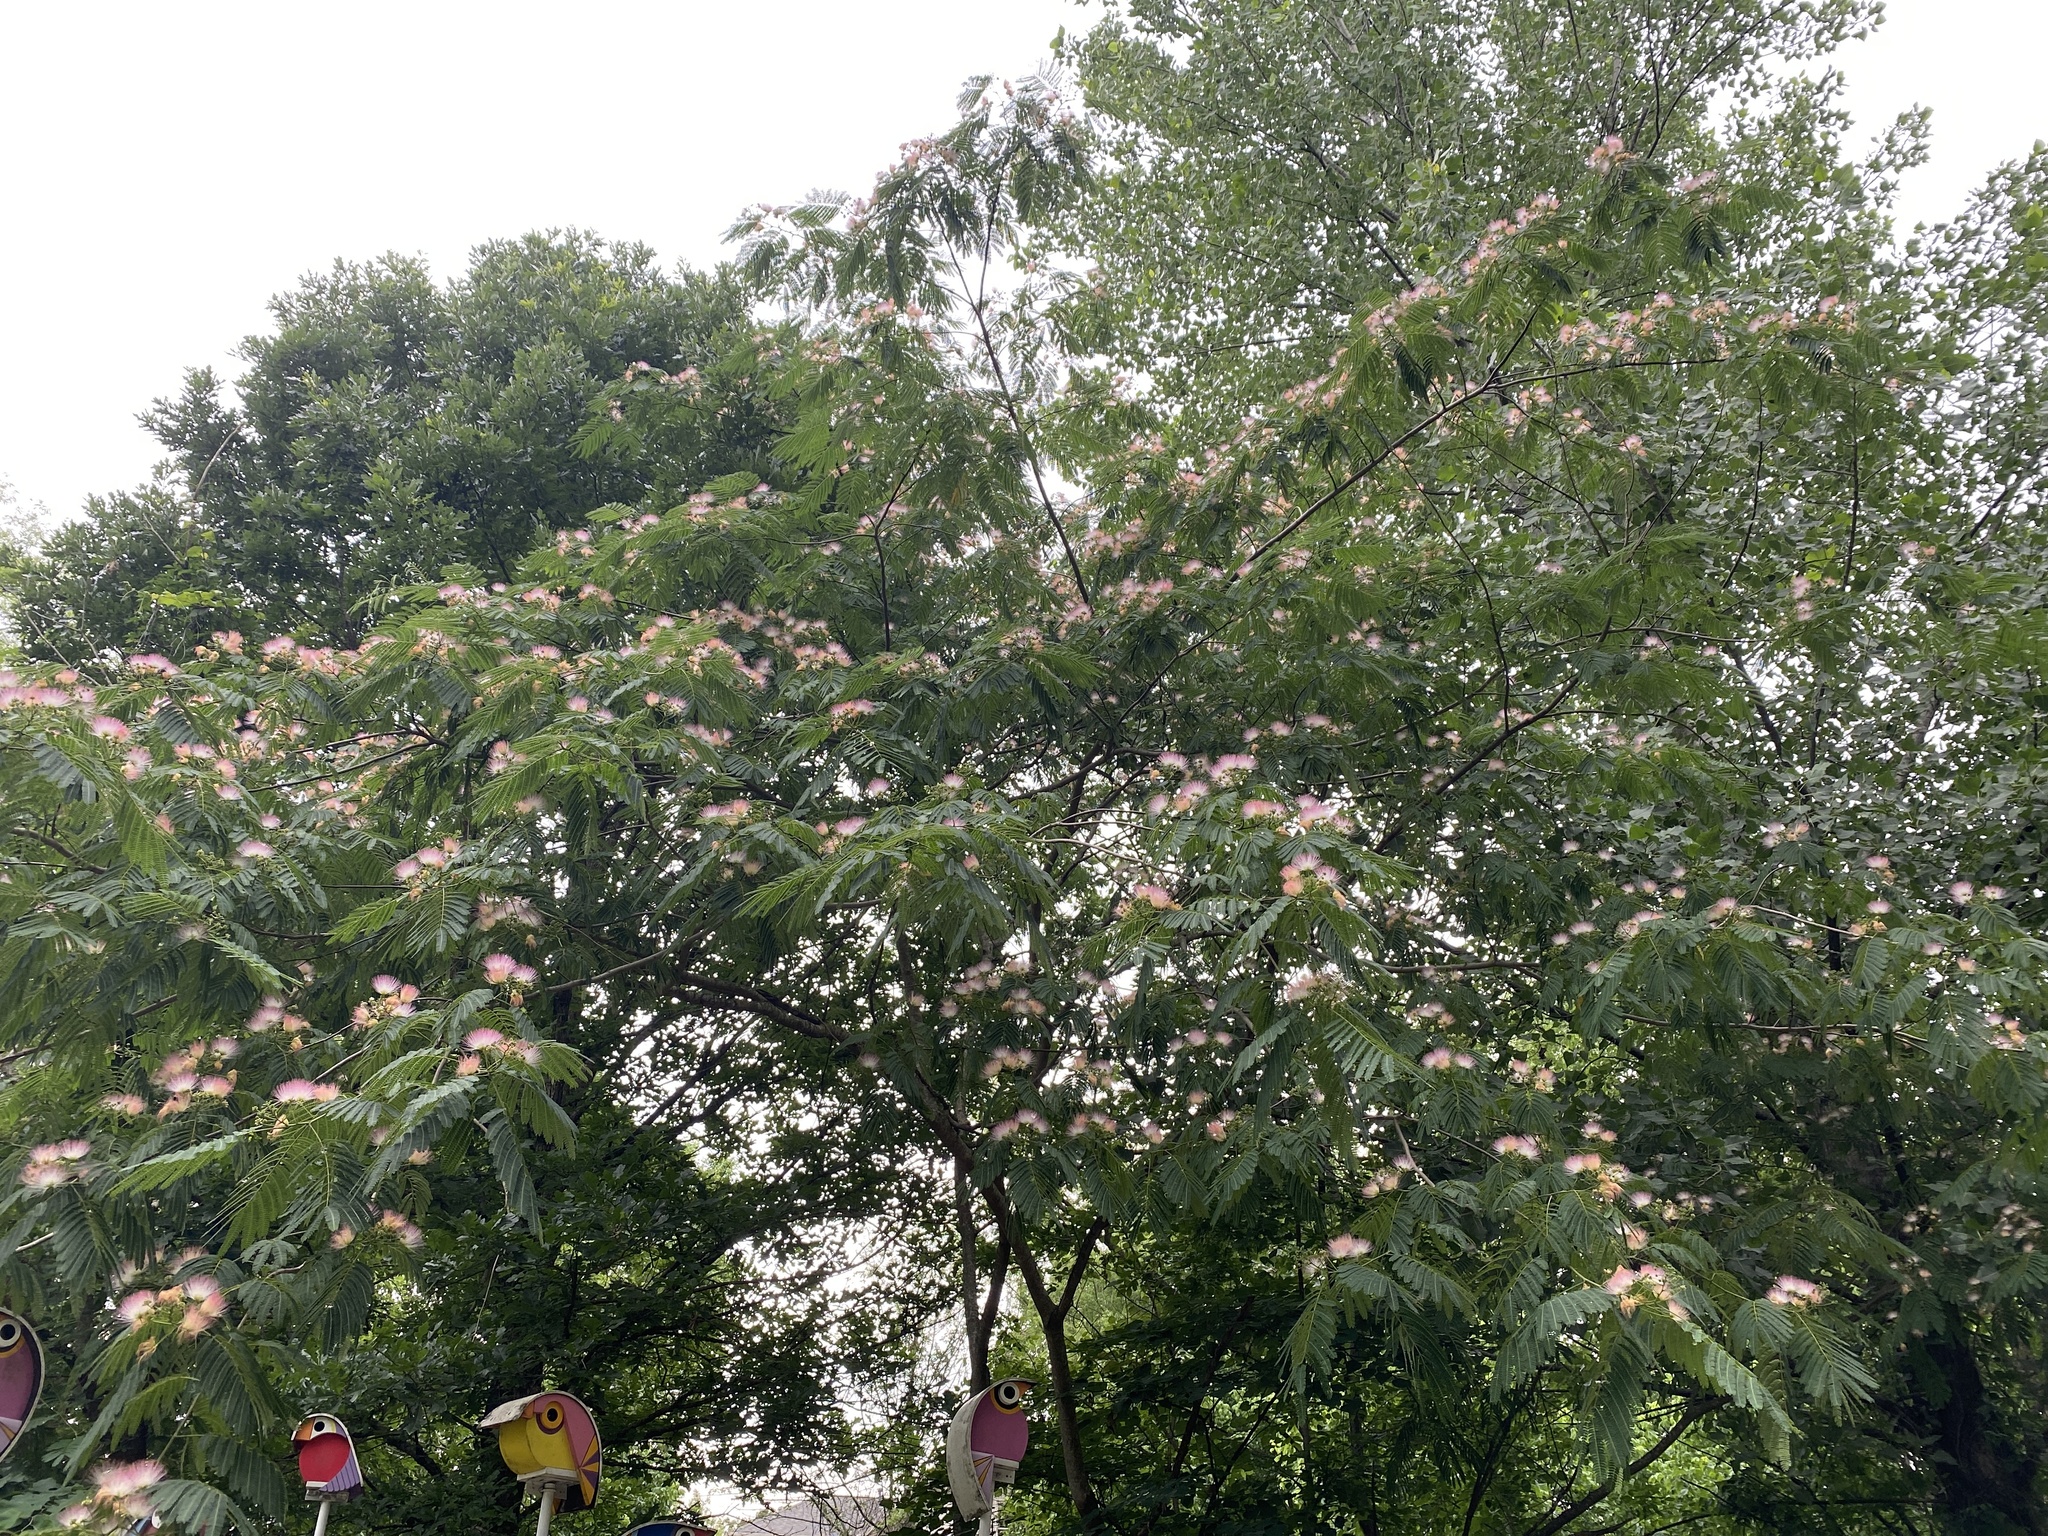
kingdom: Plantae
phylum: Tracheophyta
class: Magnoliopsida
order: Fabales
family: Fabaceae
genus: Albizia
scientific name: Albizia julibrissin
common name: Silktree
